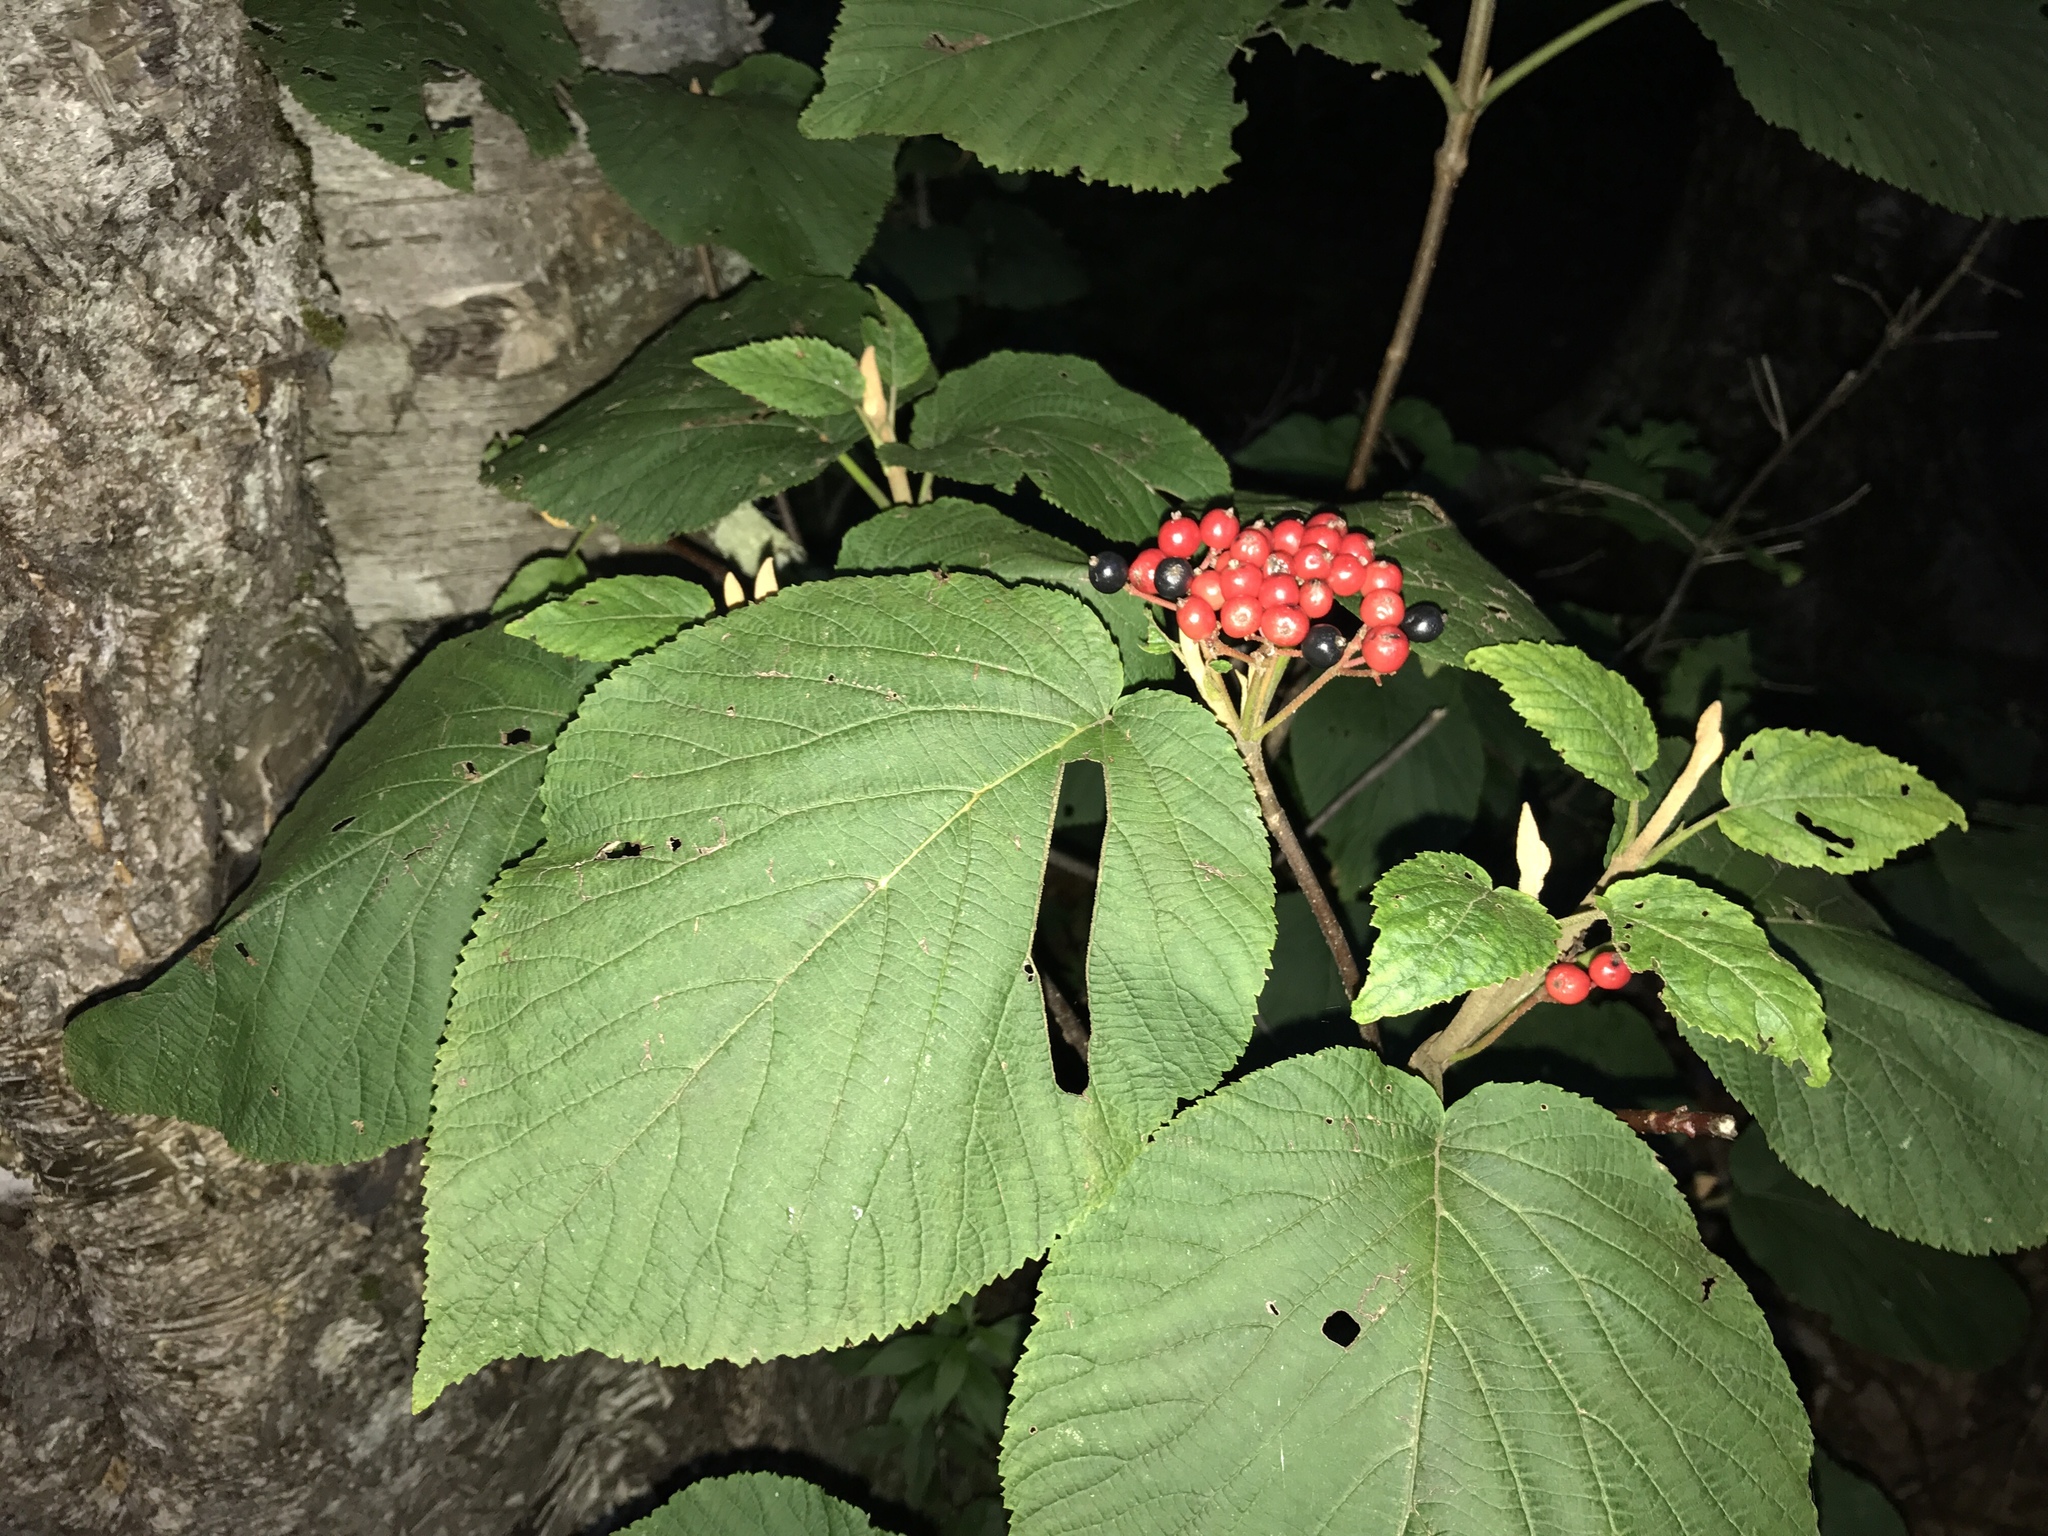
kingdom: Plantae
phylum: Tracheophyta
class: Magnoliopsida
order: Dipsacales
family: Viburnaceae
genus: Viburnum
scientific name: Viburnum lantanoides
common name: Hobblebush
